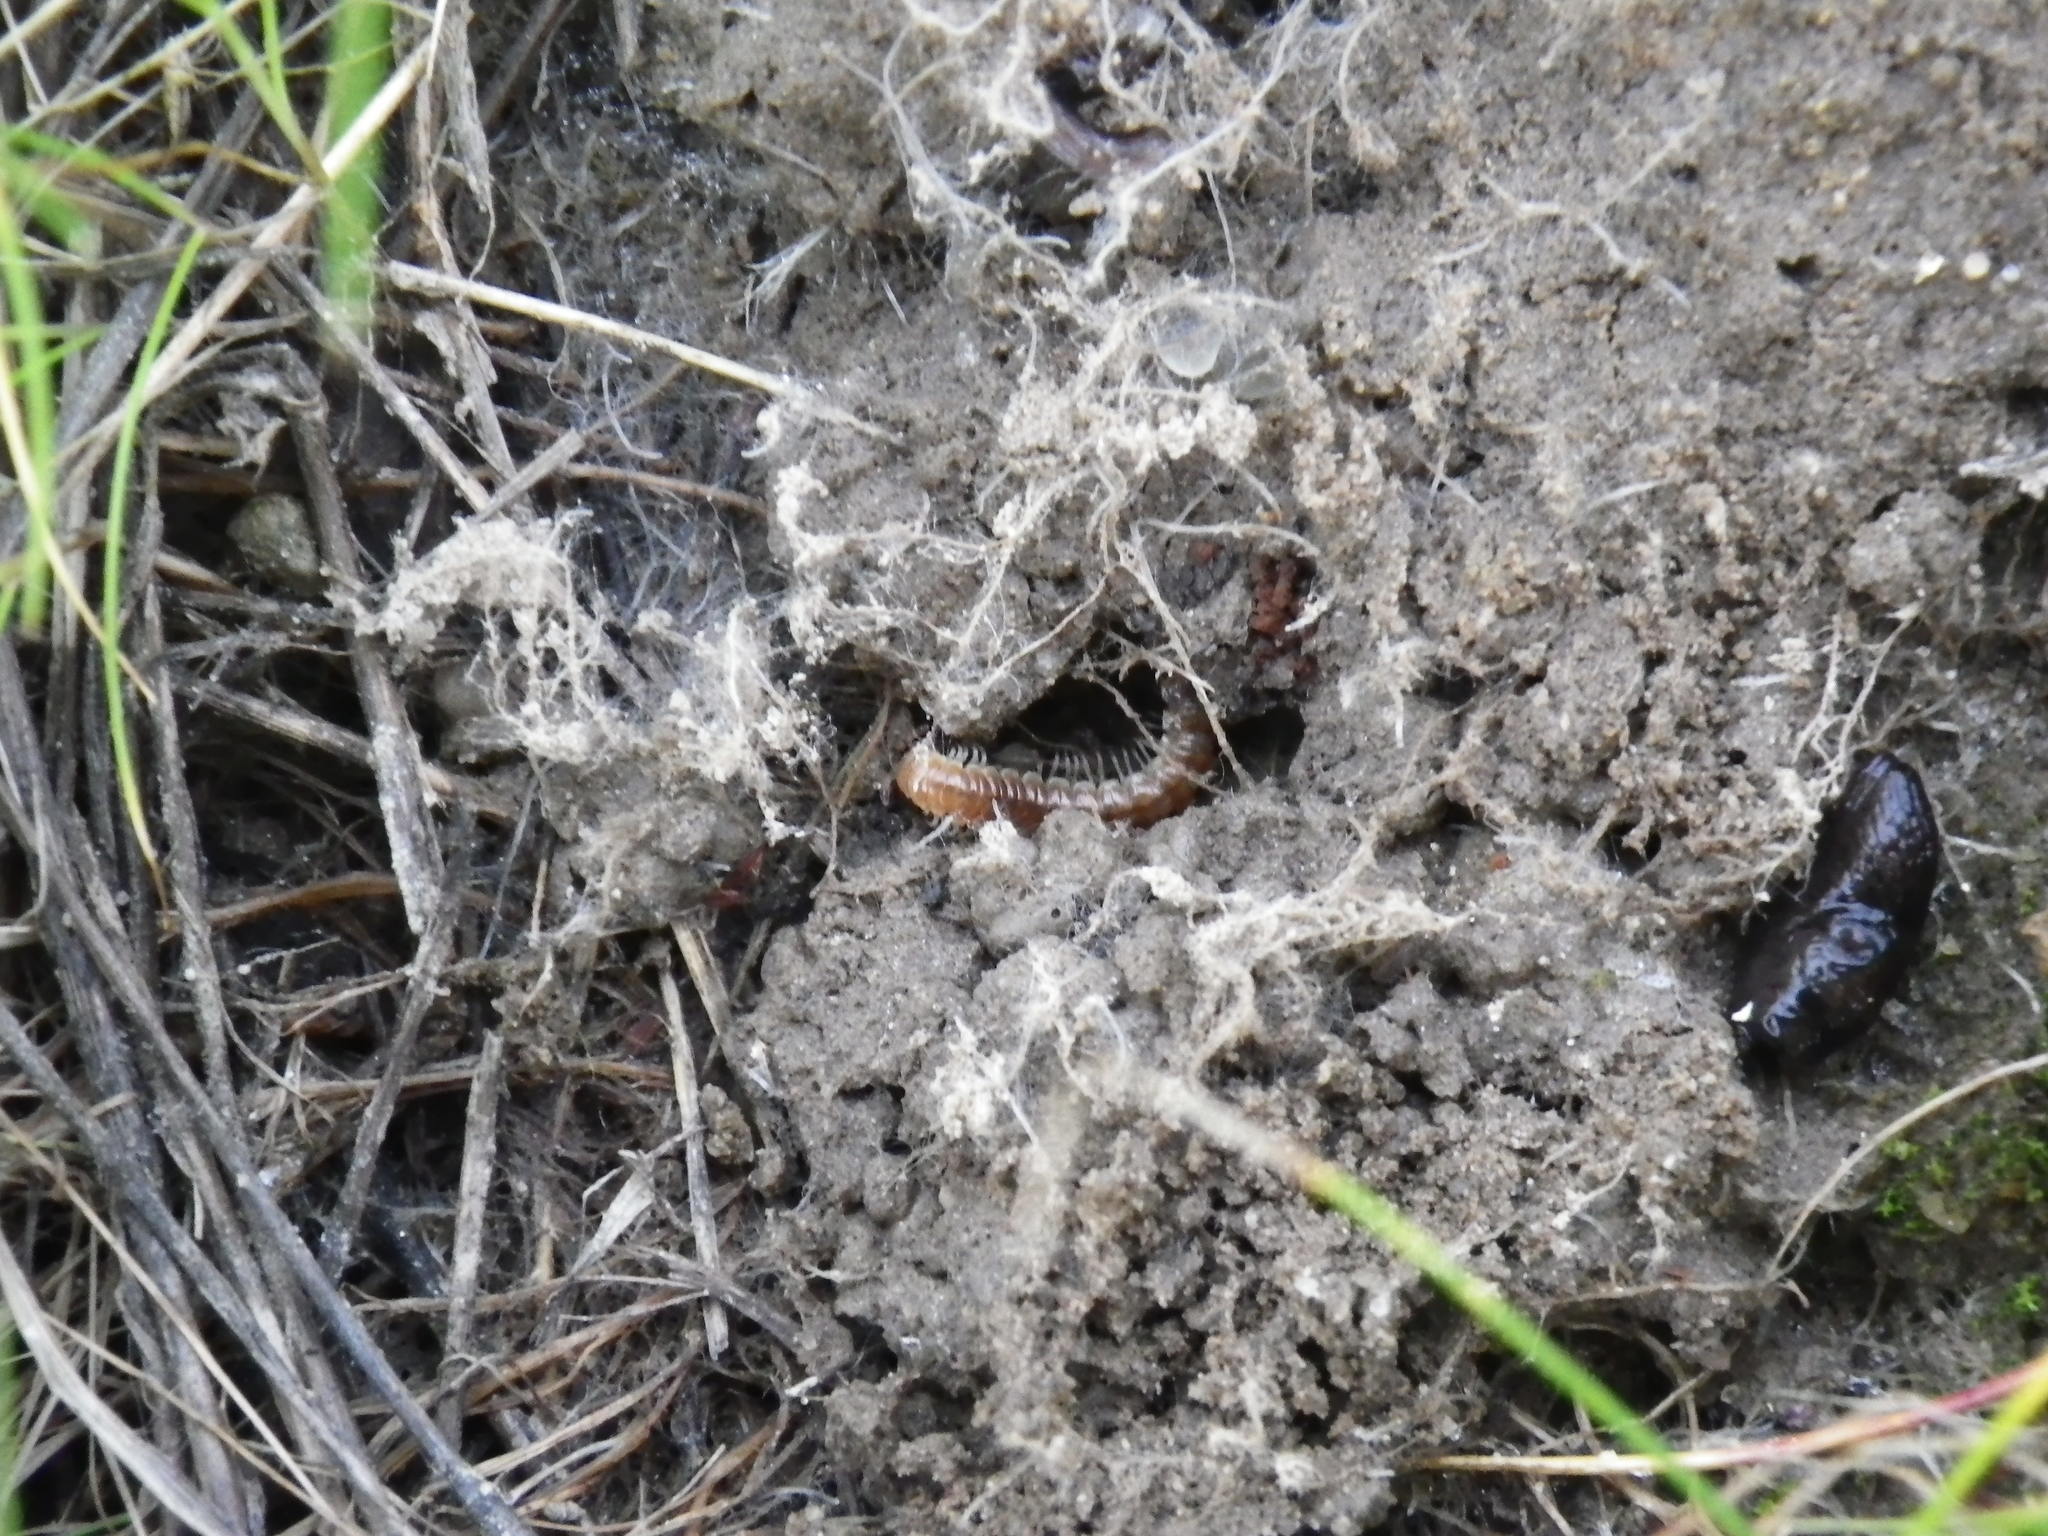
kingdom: Animalia
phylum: Arthropoda
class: Diplopoda
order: Polydesmida
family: Paradoxosomatidae
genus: Oxidus
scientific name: Oxidus gracilis
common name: Greenhouse millipede
